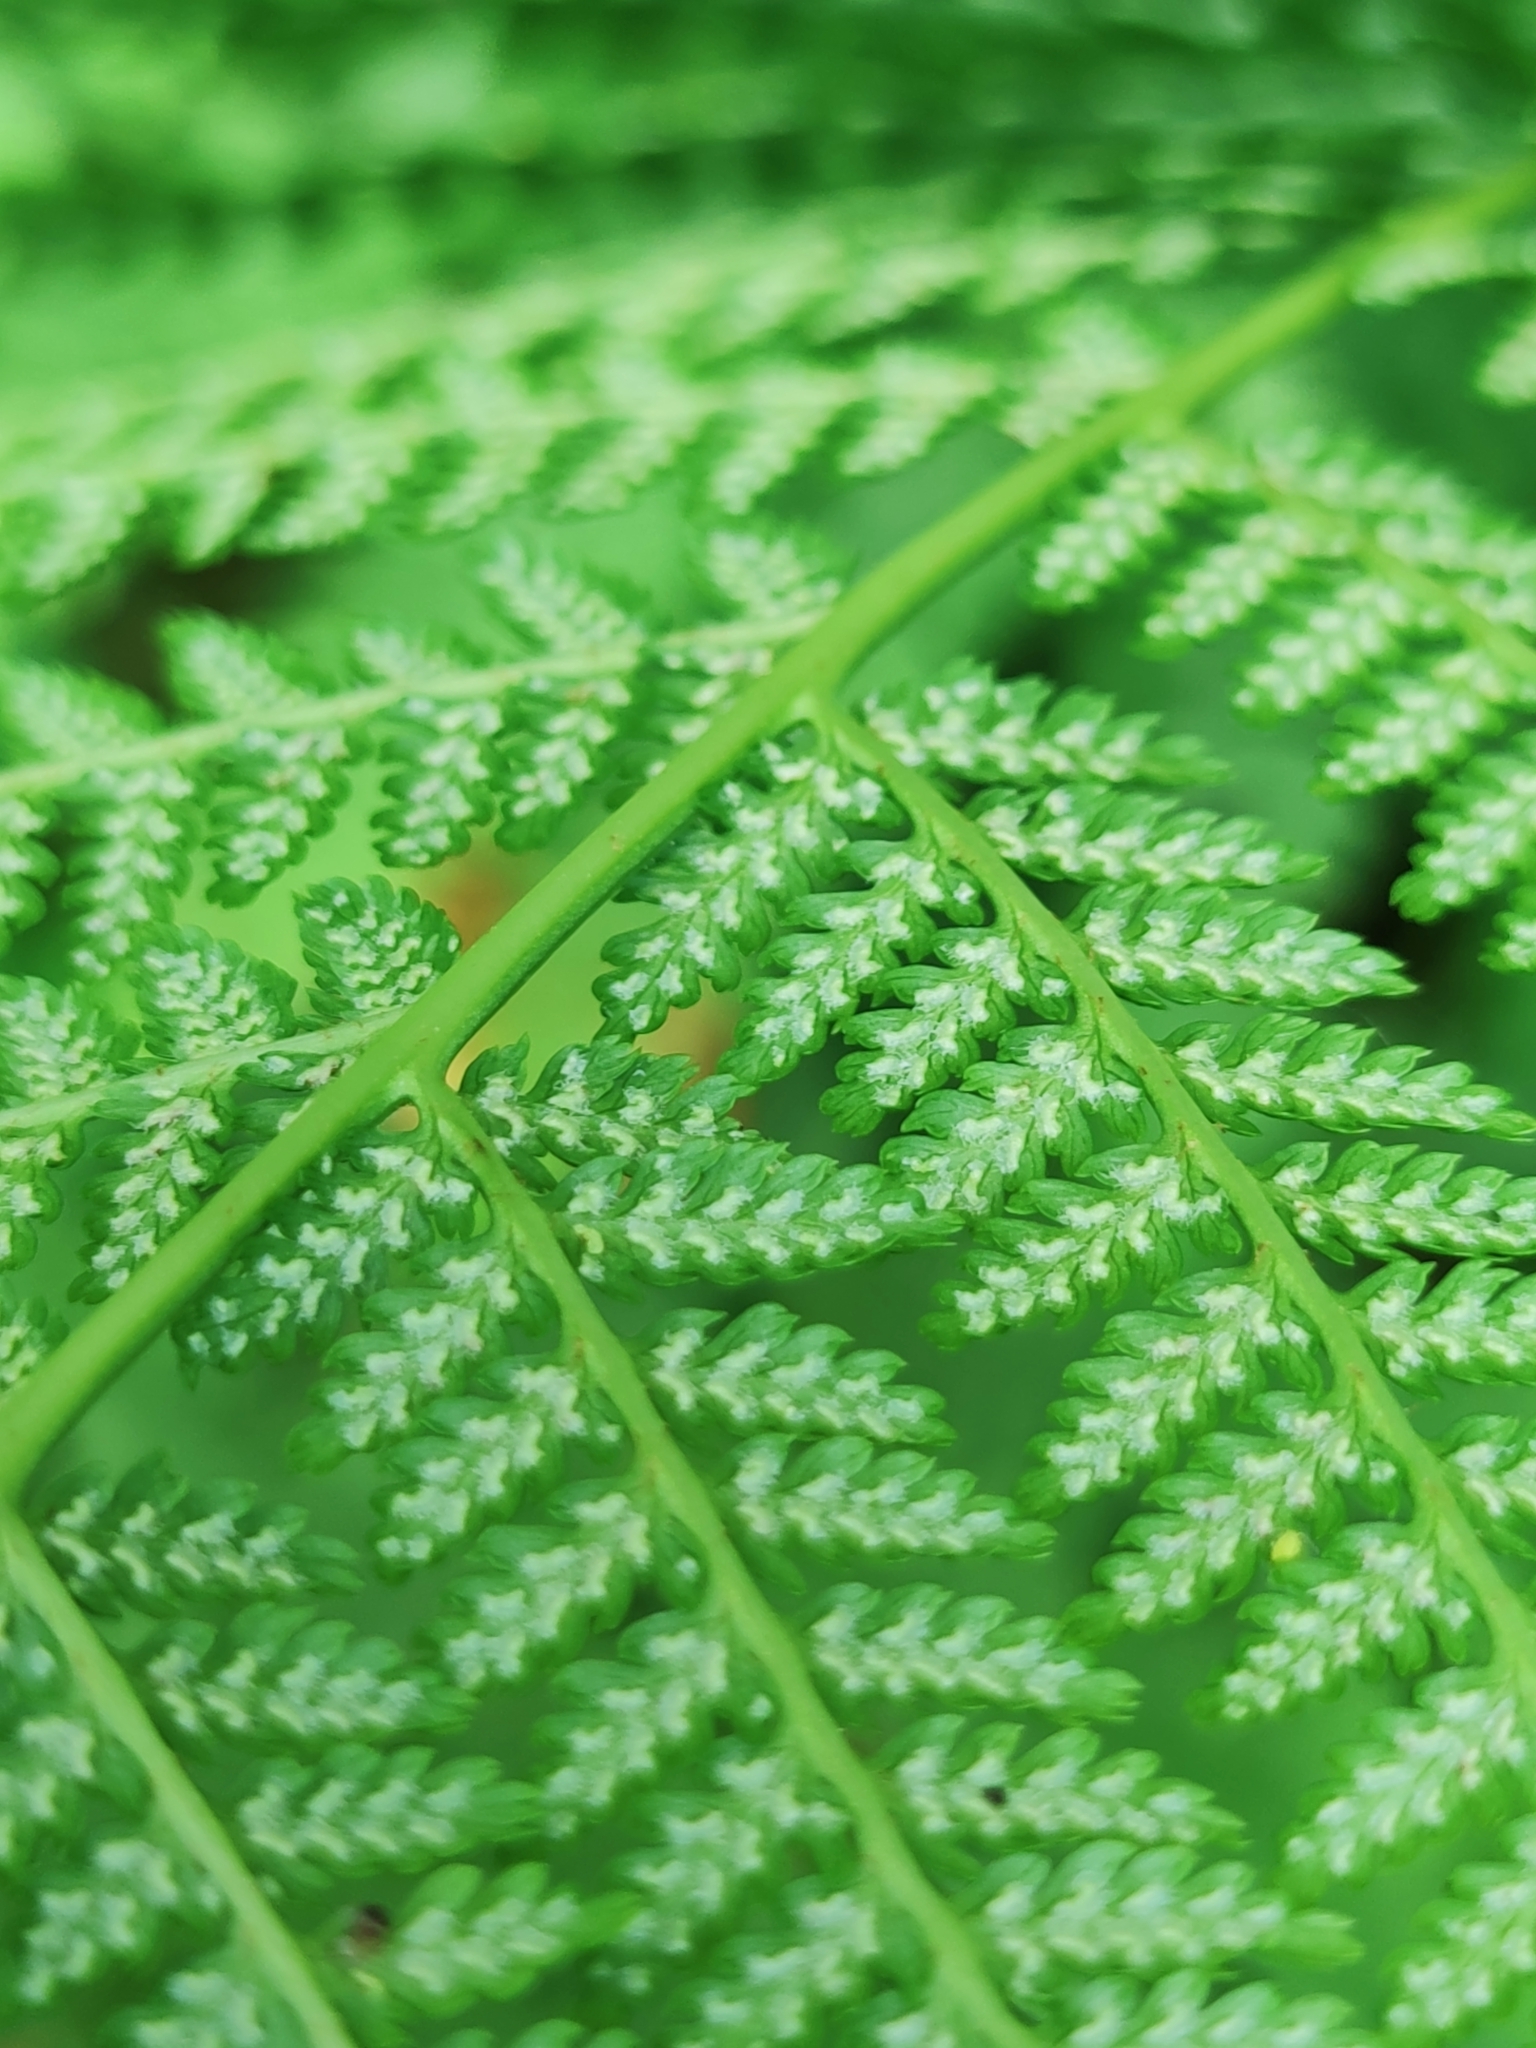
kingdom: Plantae
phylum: Tracheophyta
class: Polypodiopsida
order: Polypodiales
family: Athyriaceae
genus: Athyrium
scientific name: Athyrium filix-femina
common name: Lady fern
